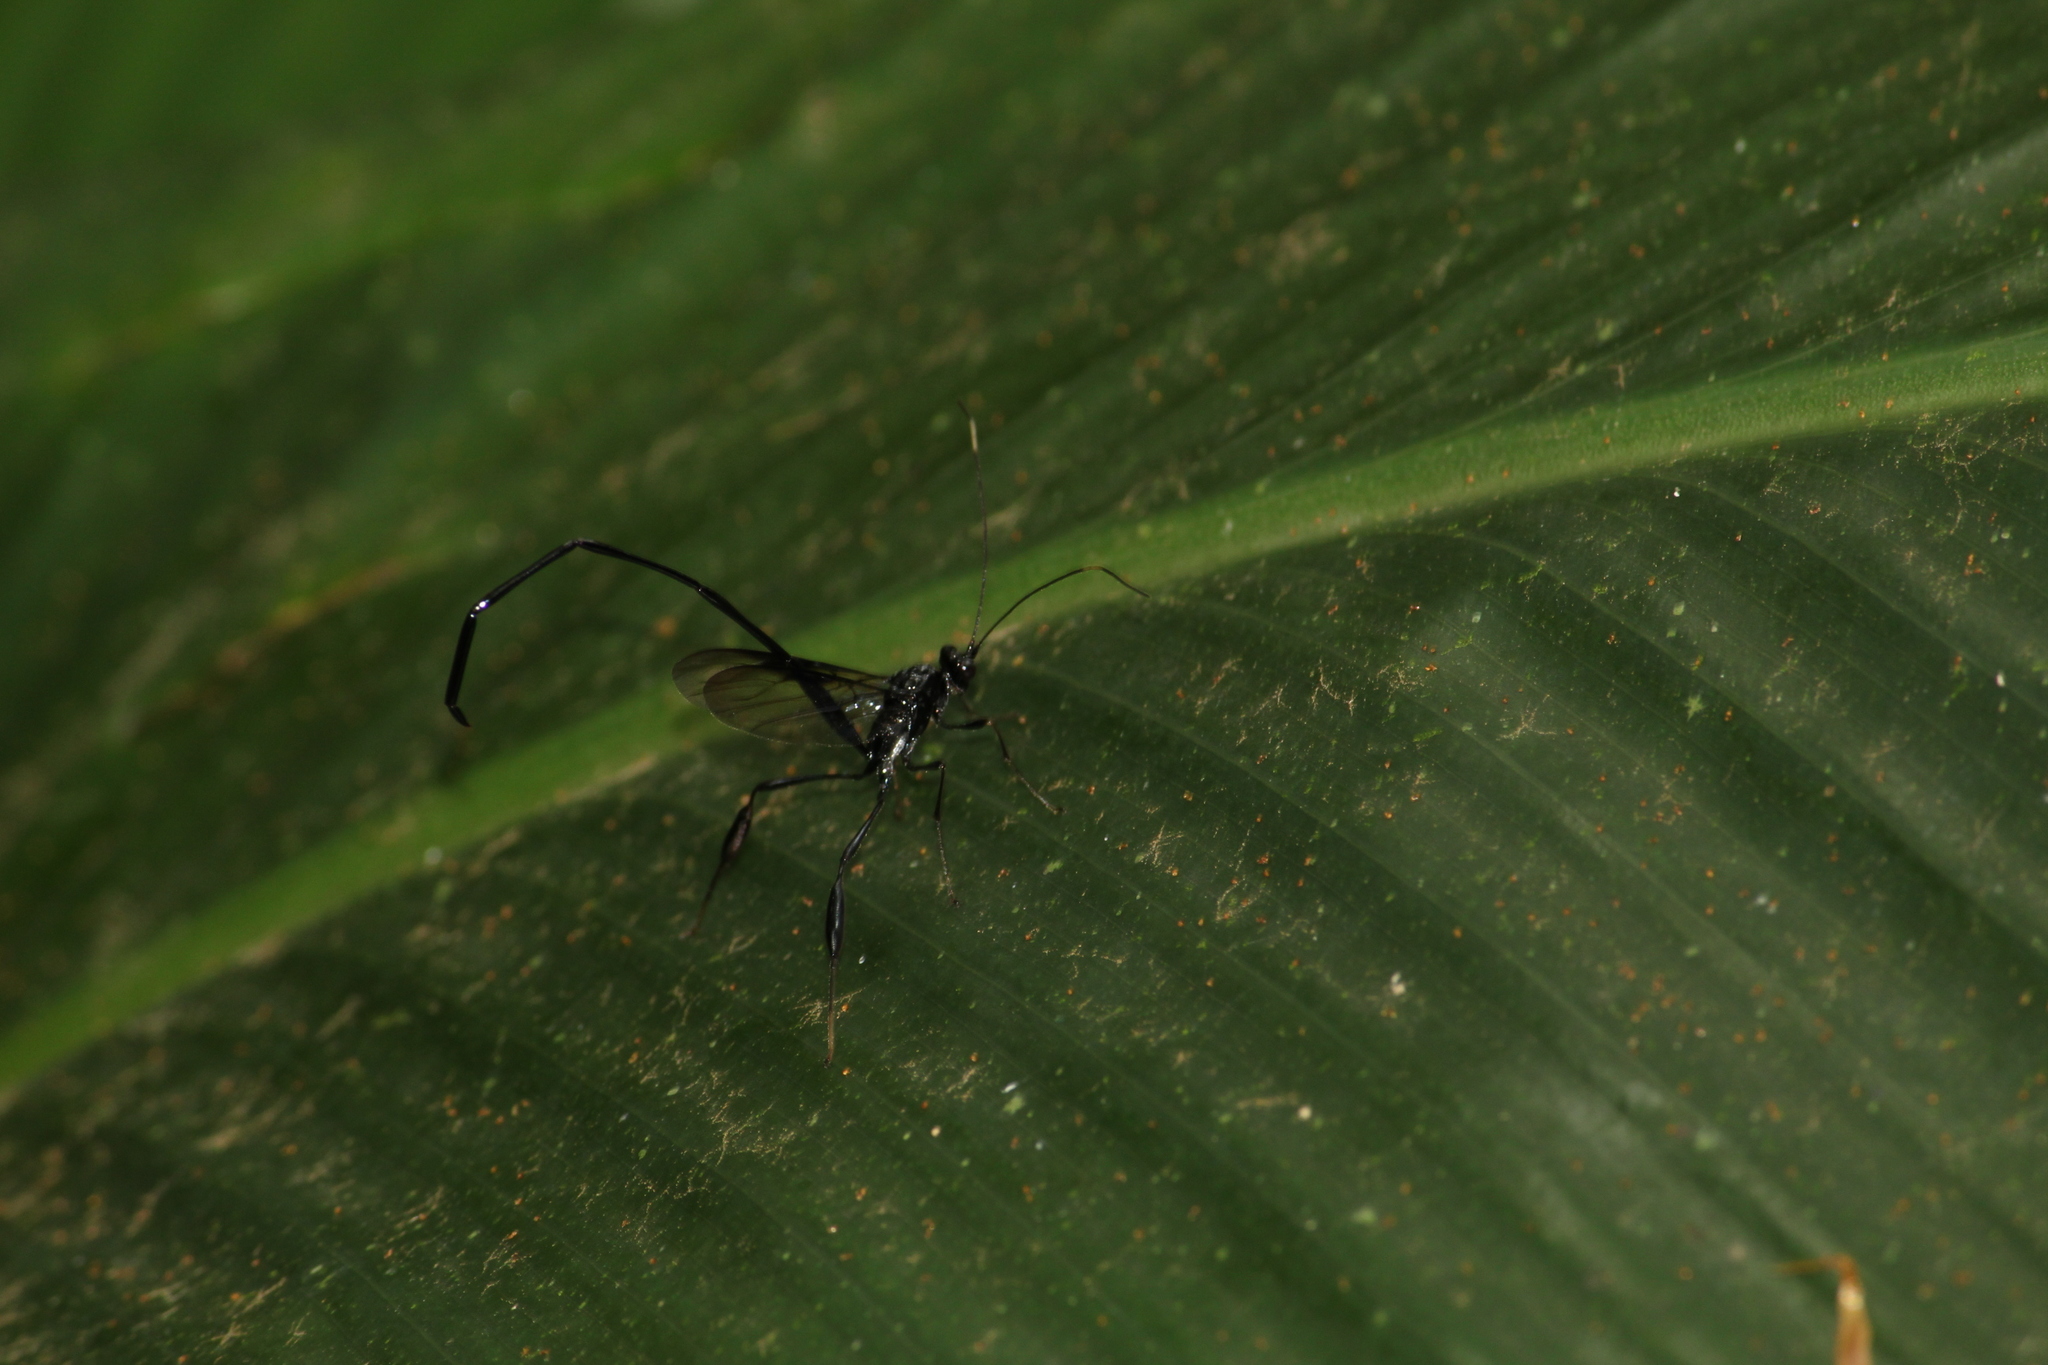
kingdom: Animalia
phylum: Arthropoda
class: Insecta
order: Hymenoptera
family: Pelecinidae
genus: Pelecinus
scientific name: Pelecinus polyturator
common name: American pelecinid wasp
